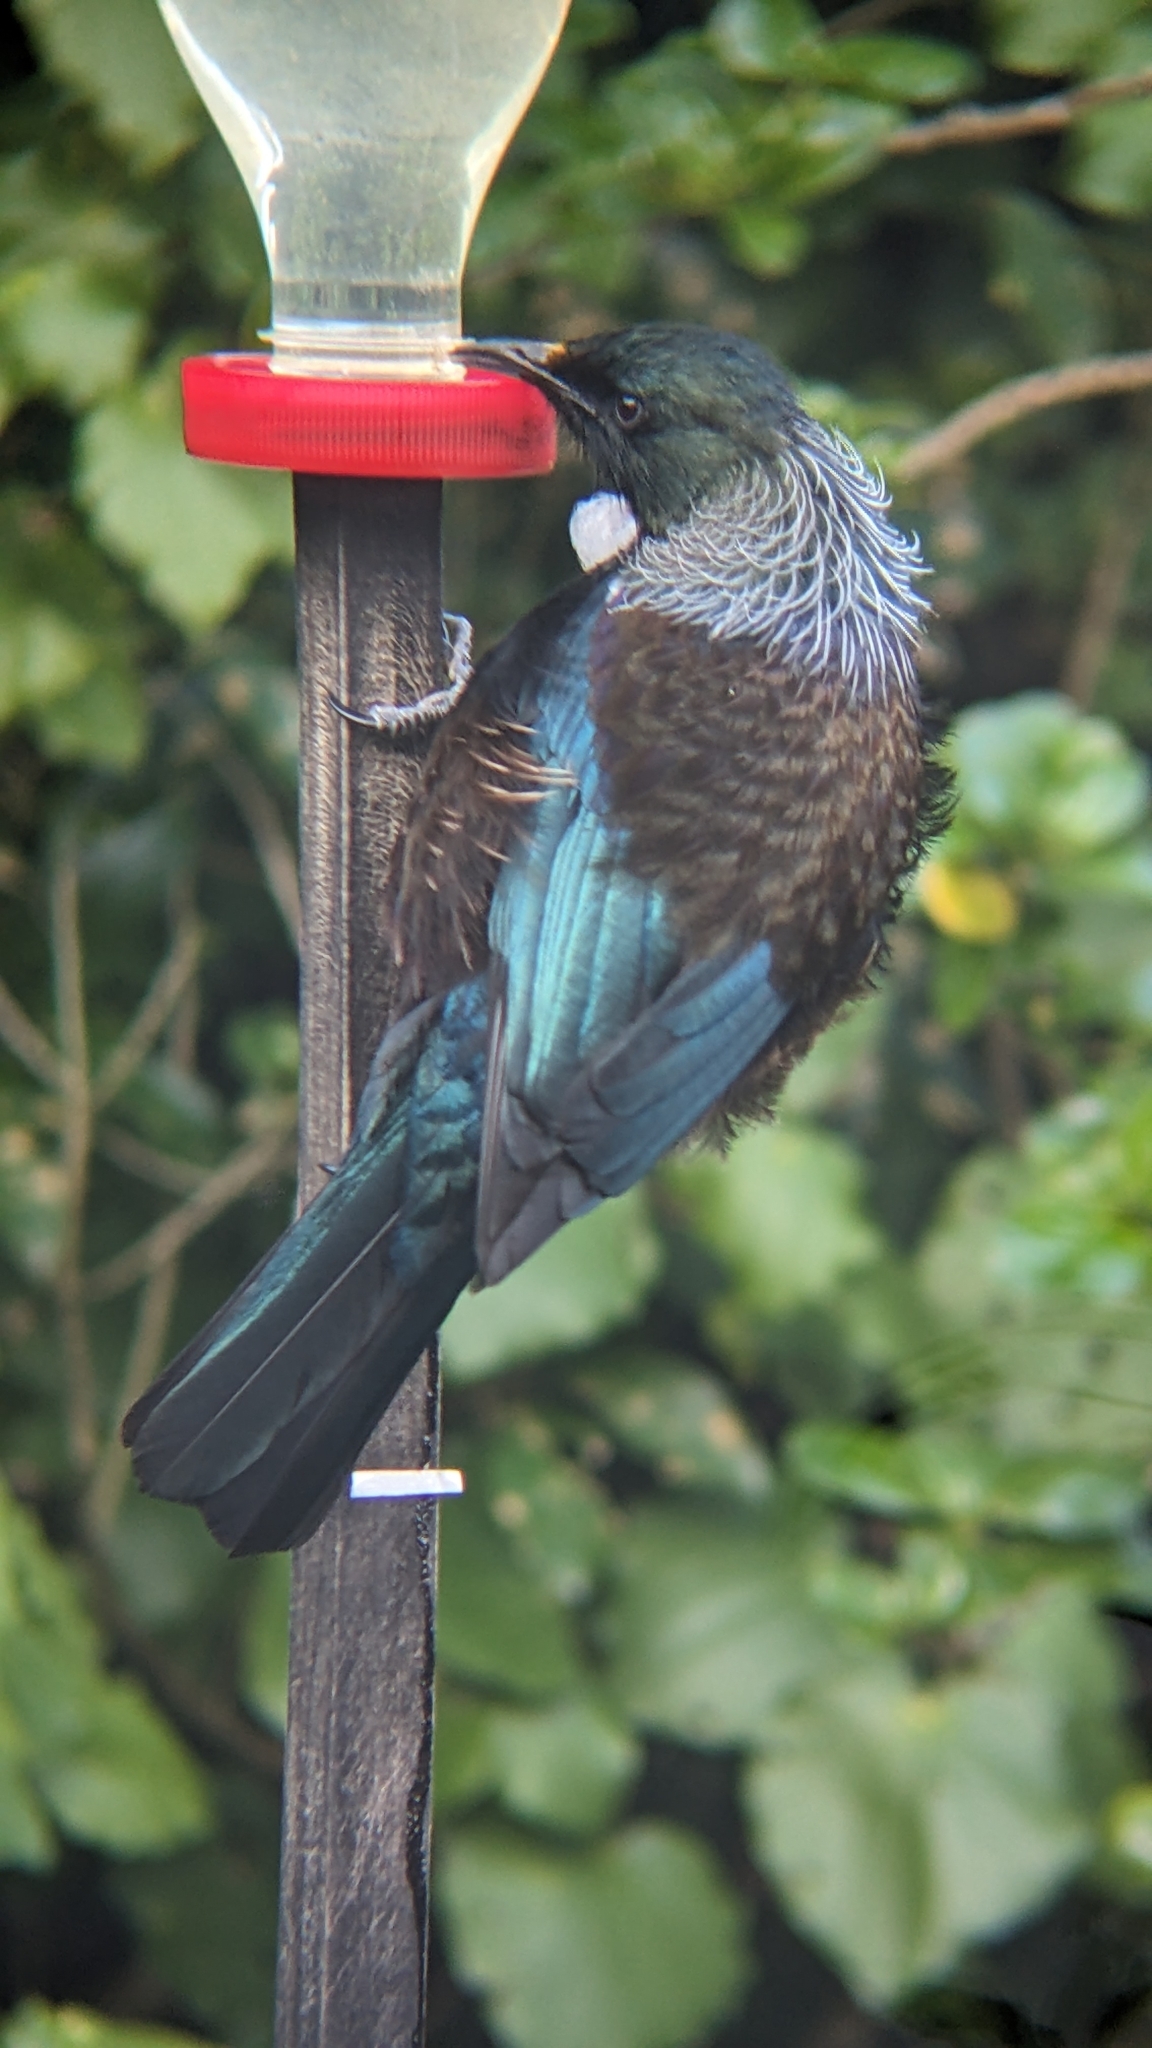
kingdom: Animalia
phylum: Chordata
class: Aves
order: Passeriformes
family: Meliphagidae
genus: Prosthemadera
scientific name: Prosthemadera novaeseelandiae
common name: Tui
